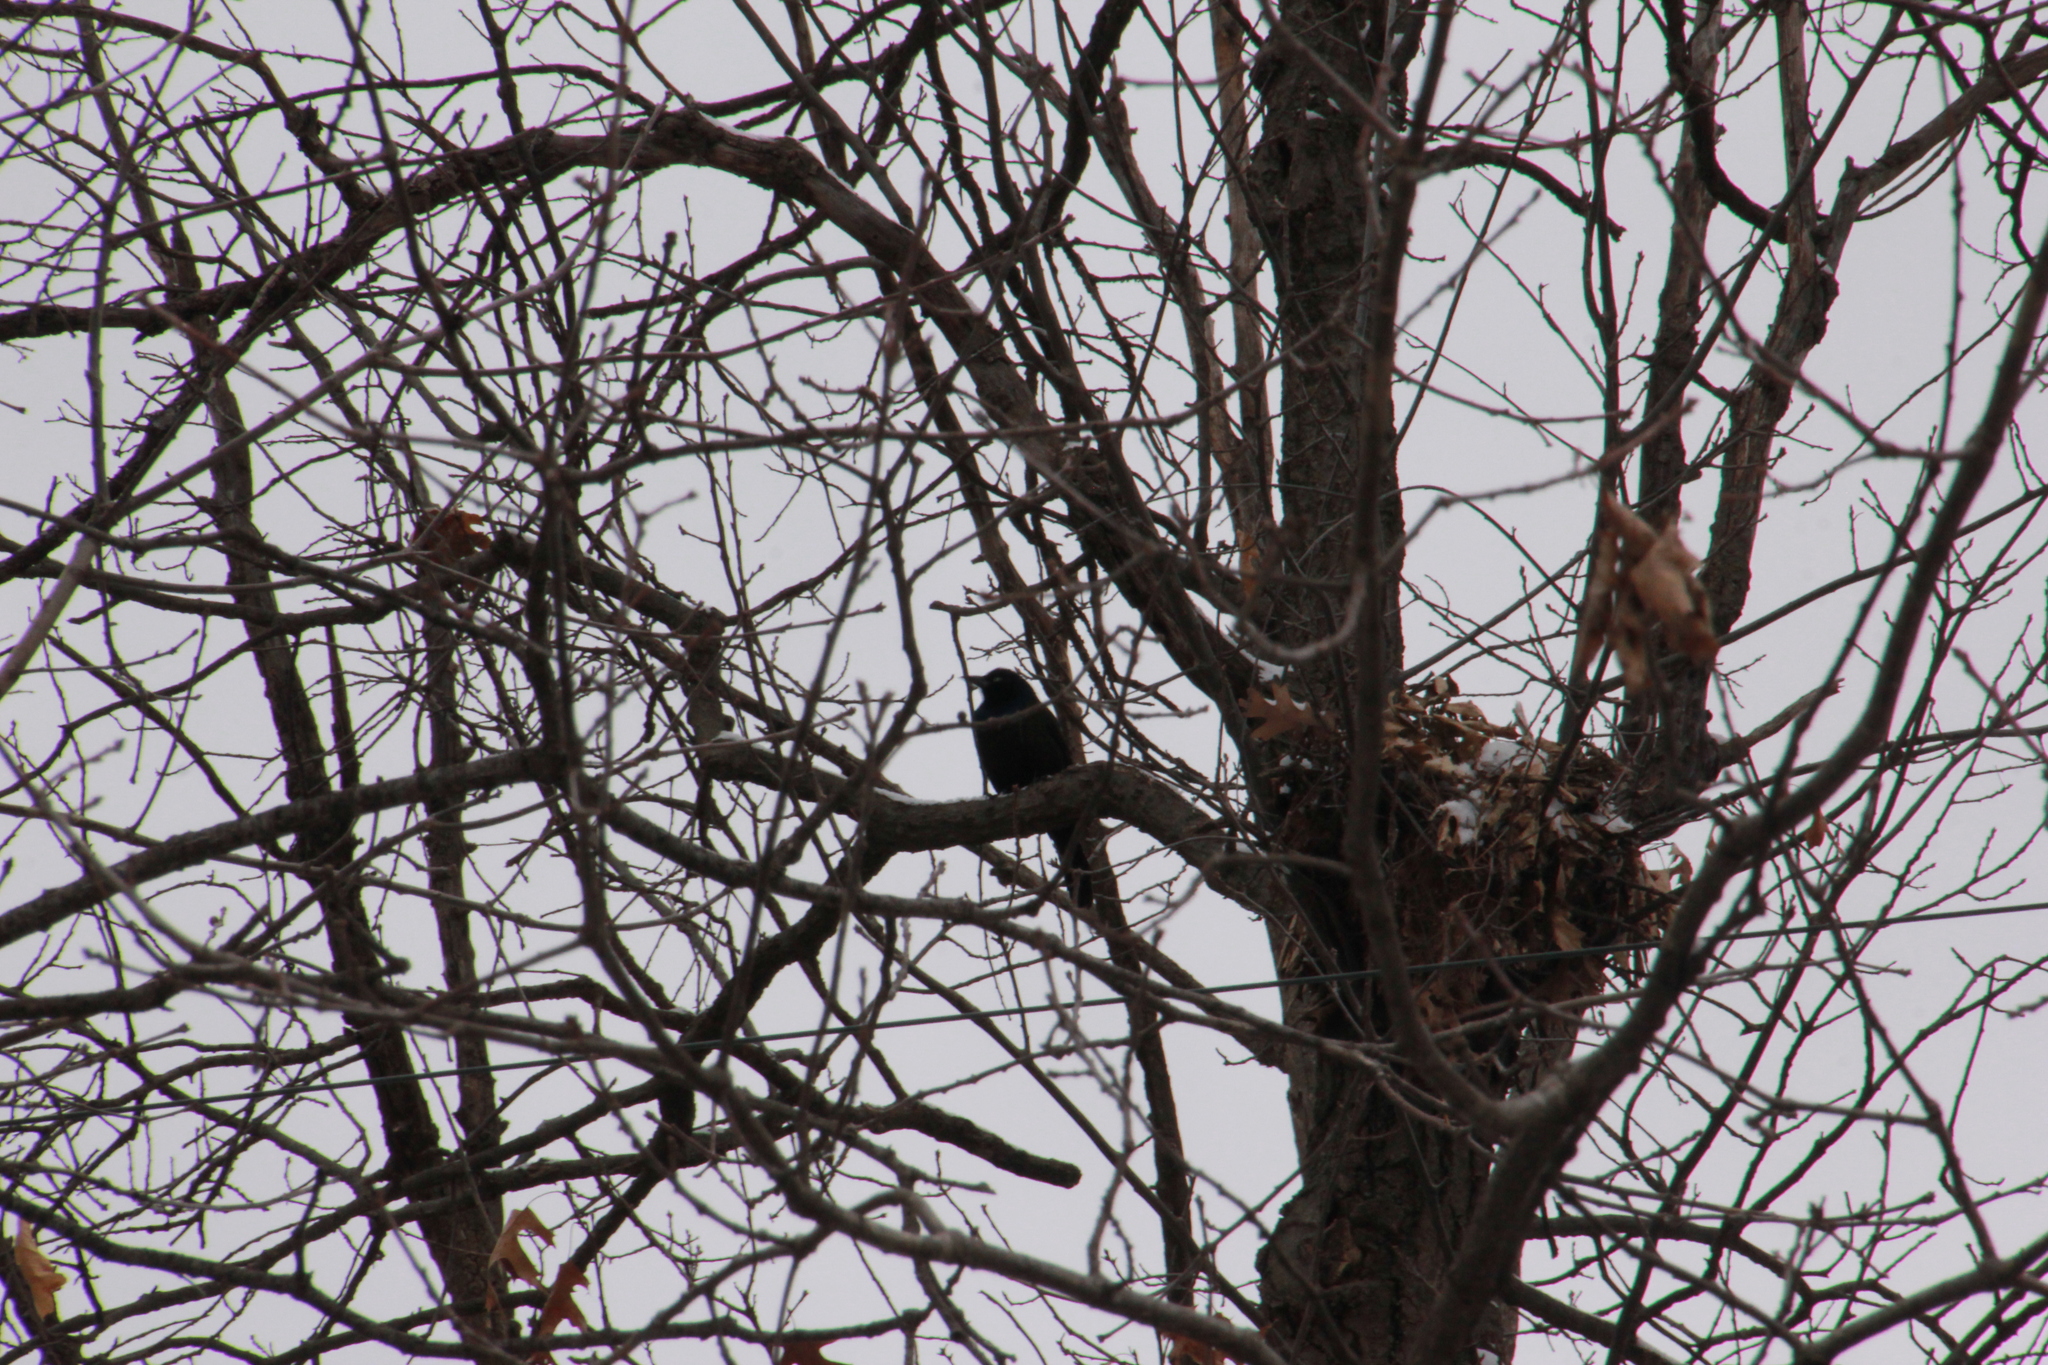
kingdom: Animalia
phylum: Chordata
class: Aves
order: Passeriformes
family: Icteridae
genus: Quiscalus
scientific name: Quiscalus quiscula
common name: Common grackle
